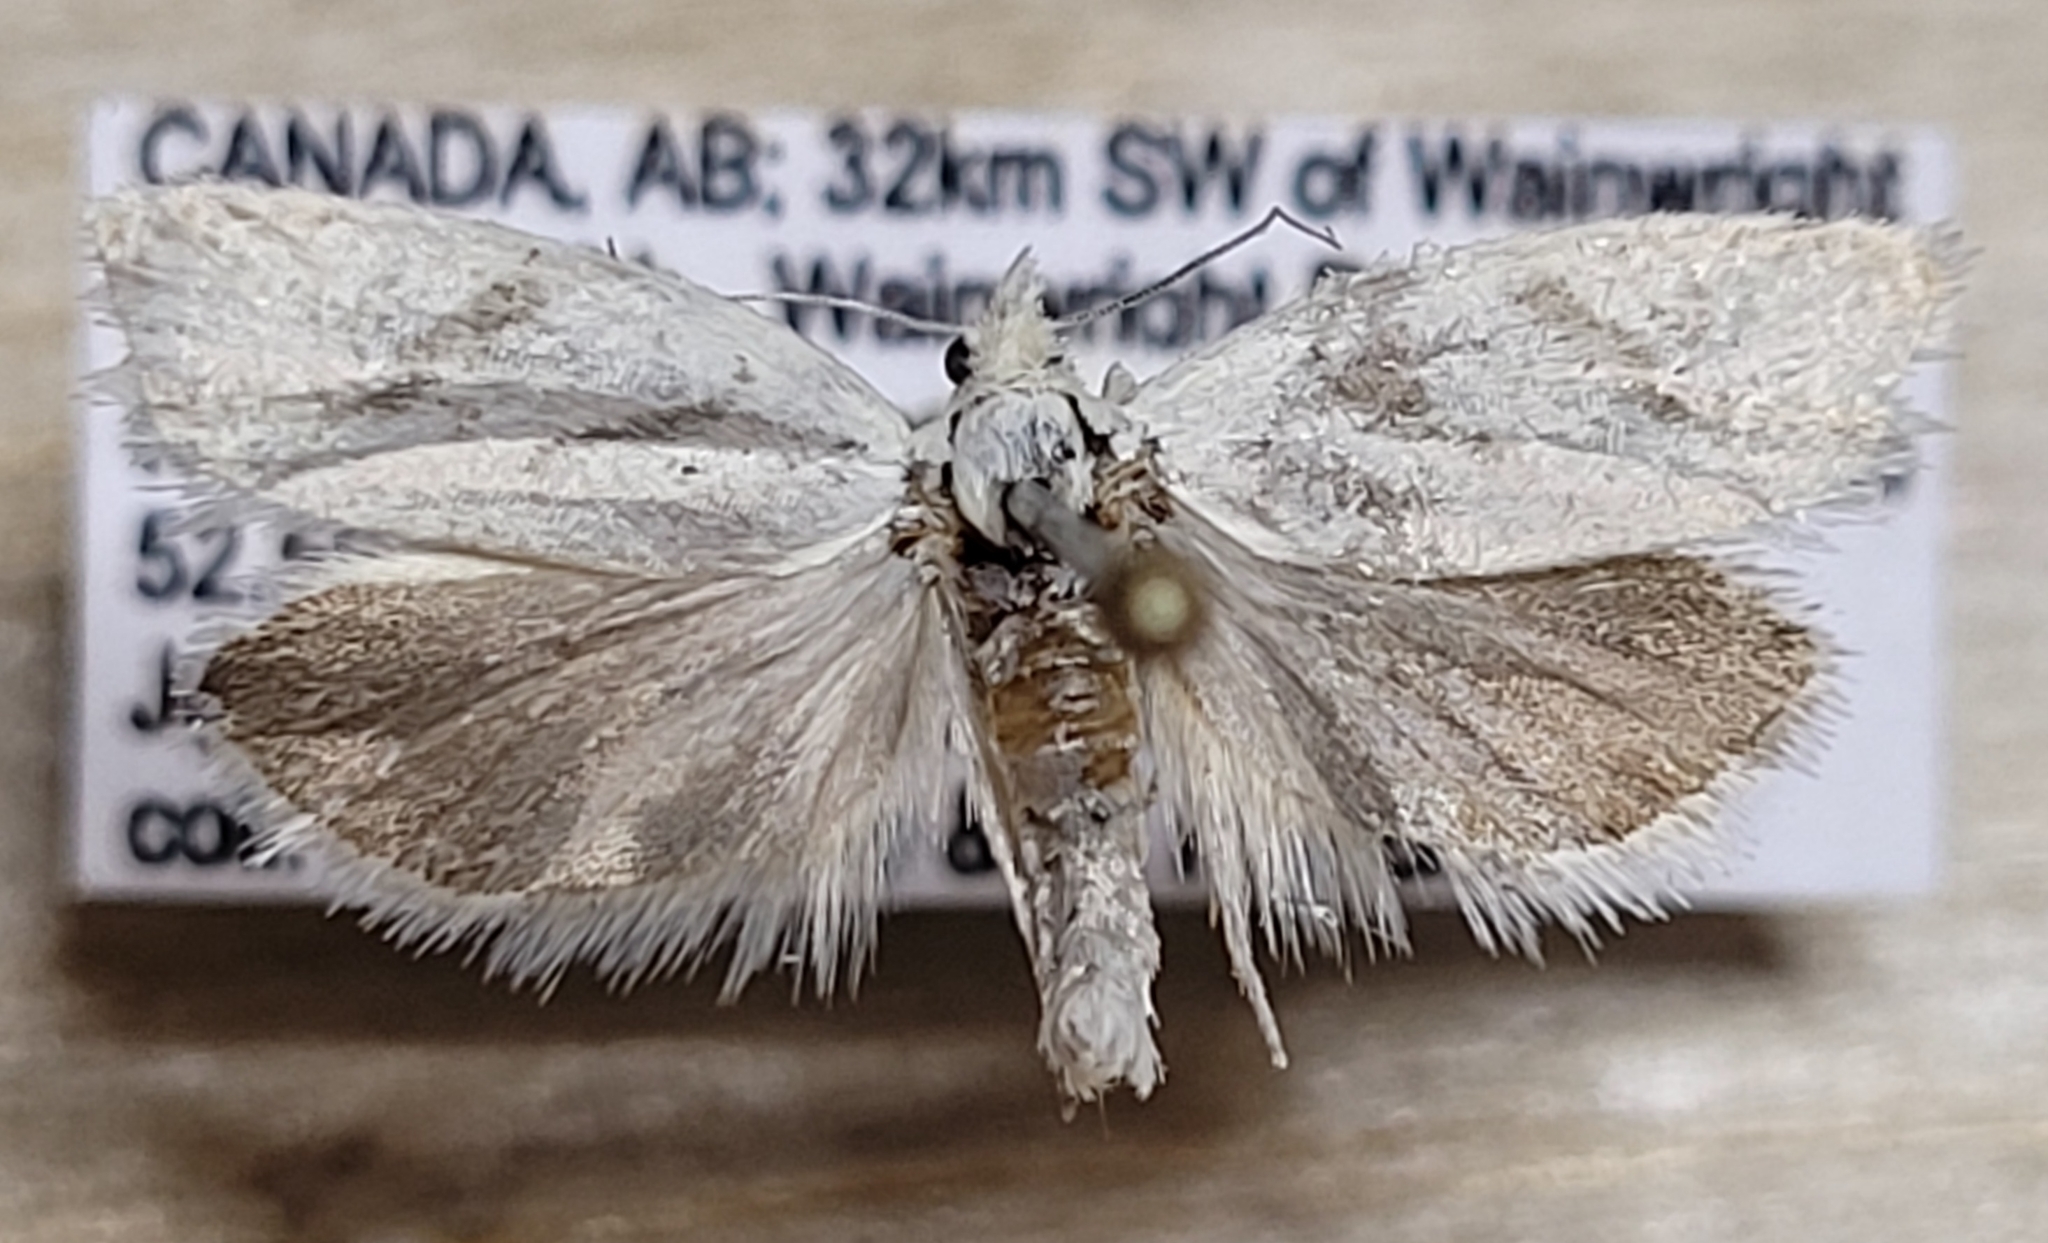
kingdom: Animalia
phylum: Arthropoda
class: Insecta
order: Lepidoptera
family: Tortricidae
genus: Eucosma
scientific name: Eucosma infimbriana
